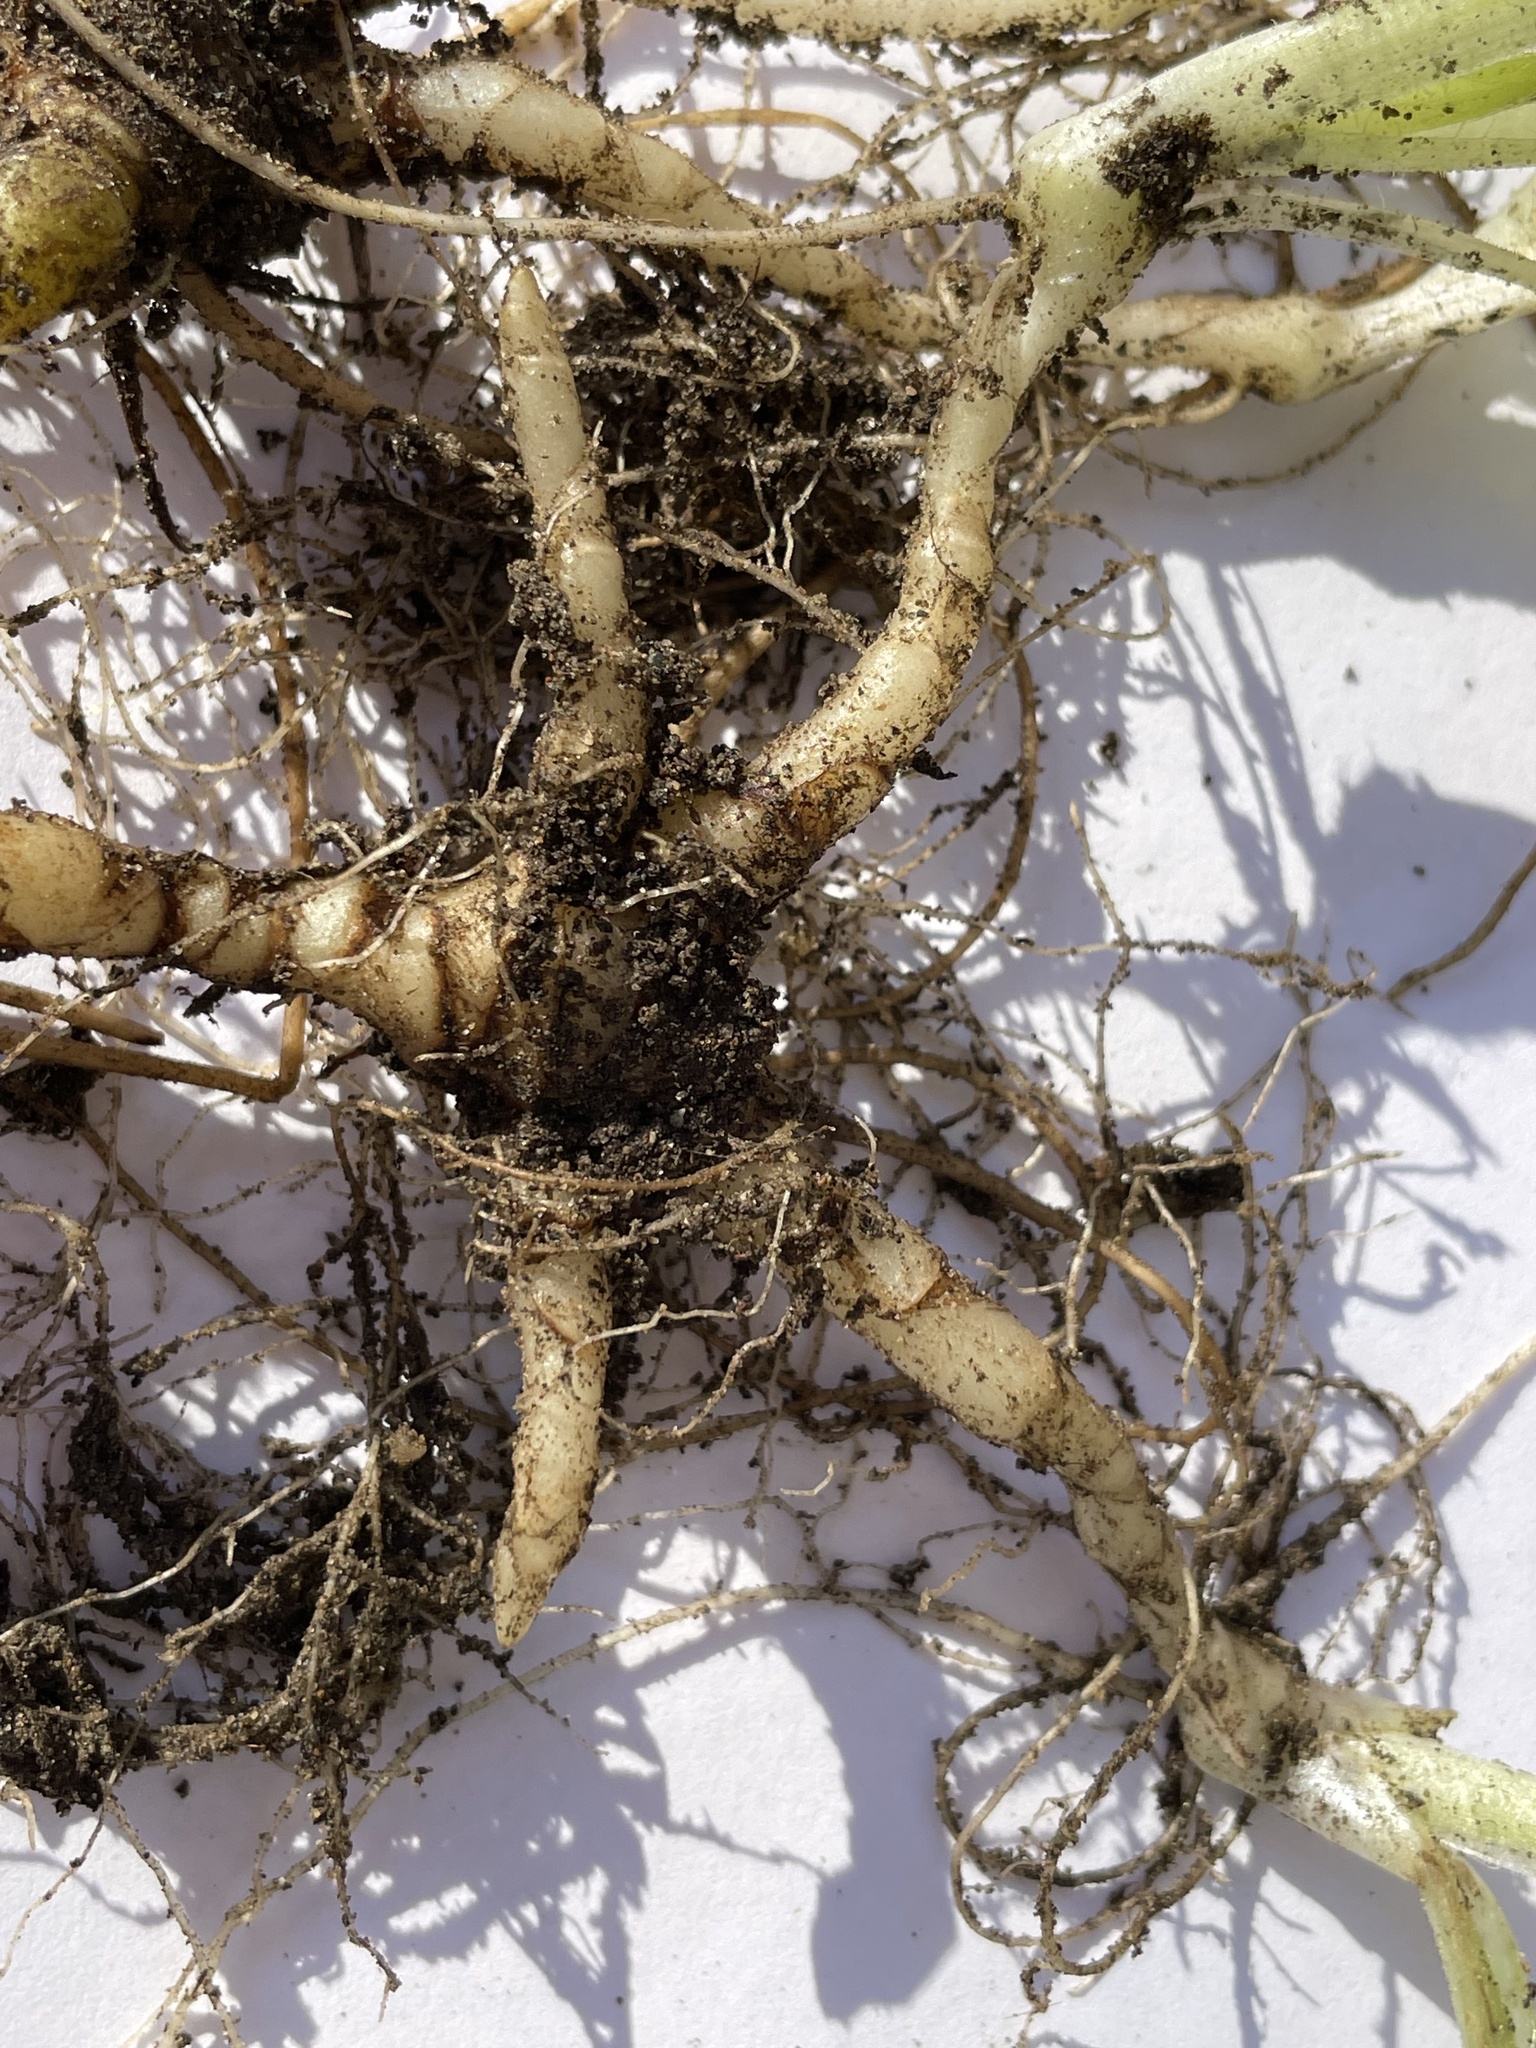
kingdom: Plantae
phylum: Tracheophyta
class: Magnoliopsida
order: Asterales
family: Asteraceae
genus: Doronicum
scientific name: Doronicum willdenowii
